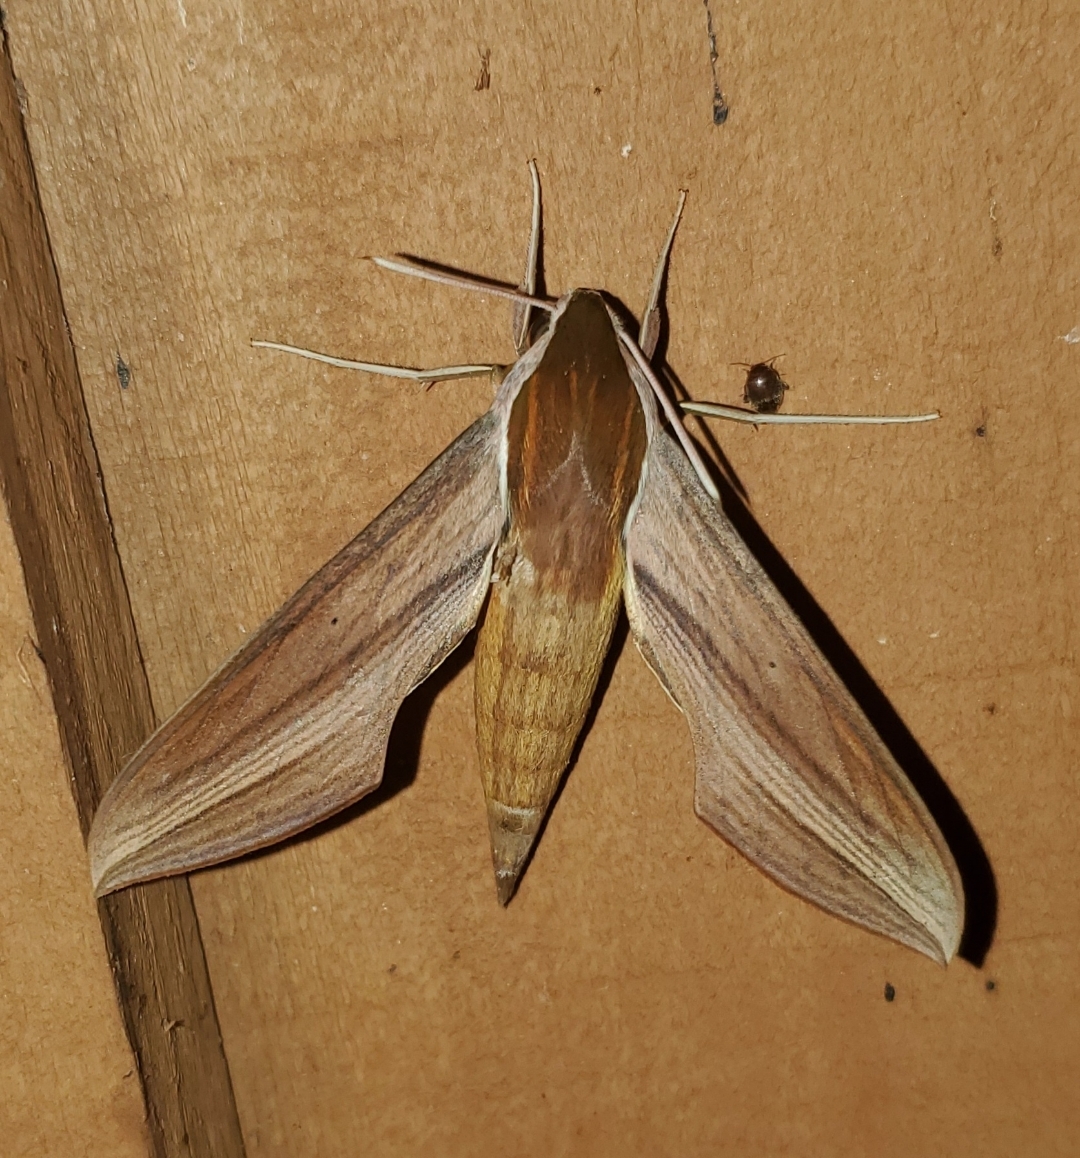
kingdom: Animalia
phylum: Arthropoda
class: Insecta
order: Lepidoptera
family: Sphingidae
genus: Xylophanes
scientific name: Xylophanes tersa
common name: Tersa sphinx
